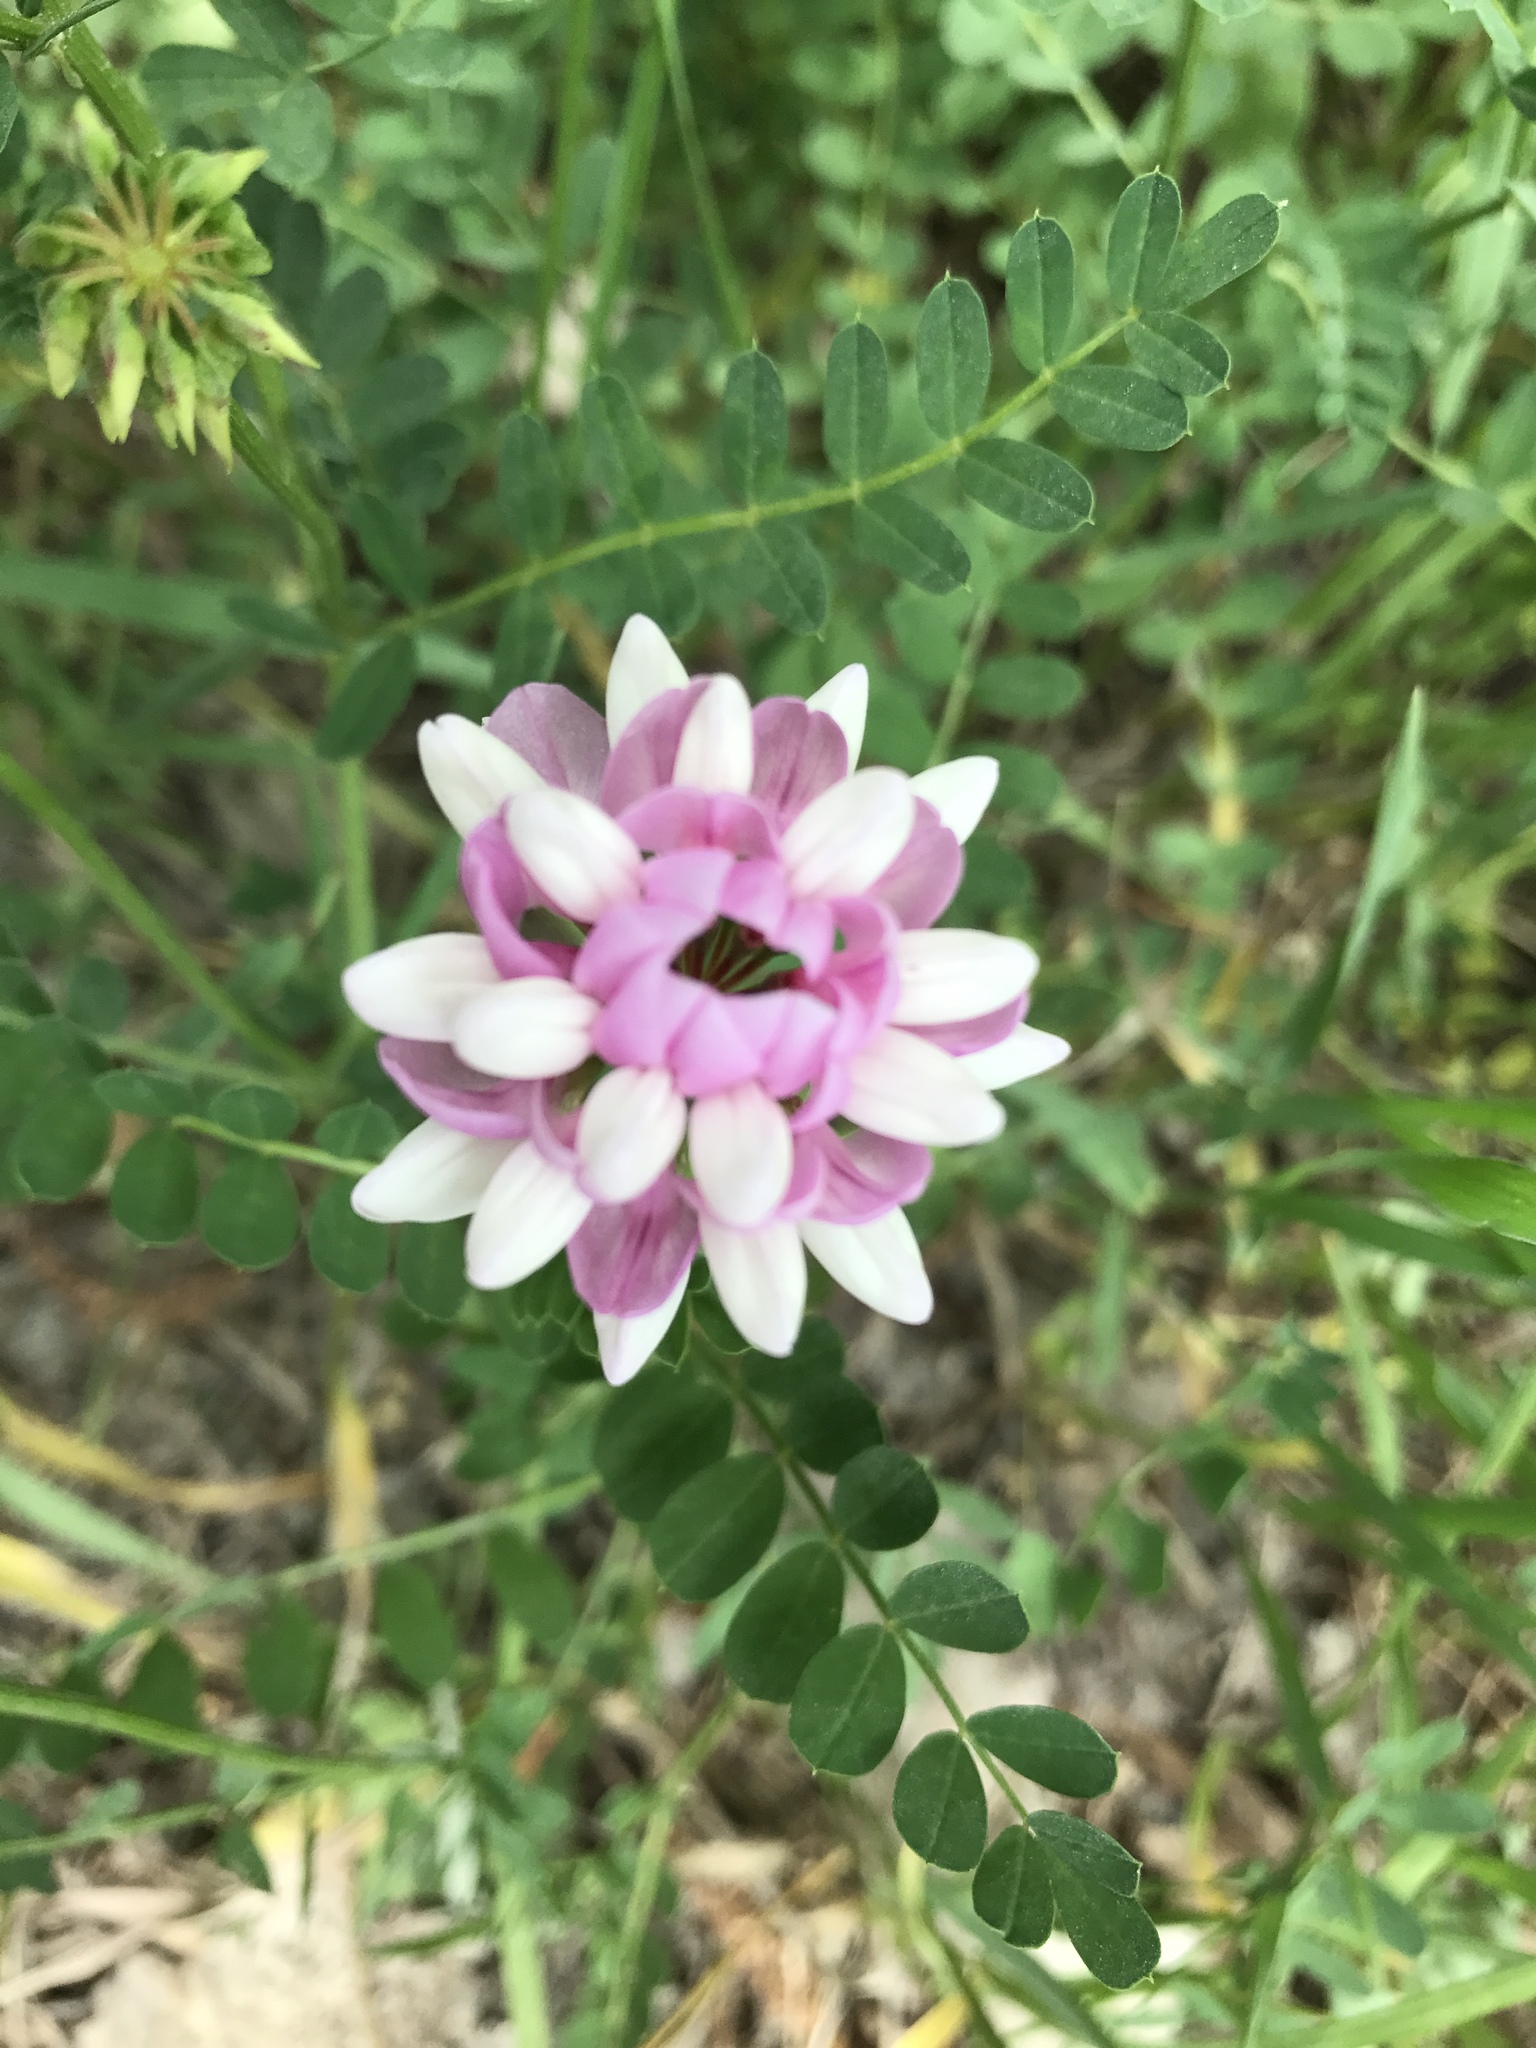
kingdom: Plantae
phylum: Tracheophyta
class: Magnoliopsida
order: Fabales
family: Fabaceae
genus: Coronilla
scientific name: Coronilla varia
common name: Crownvetch
